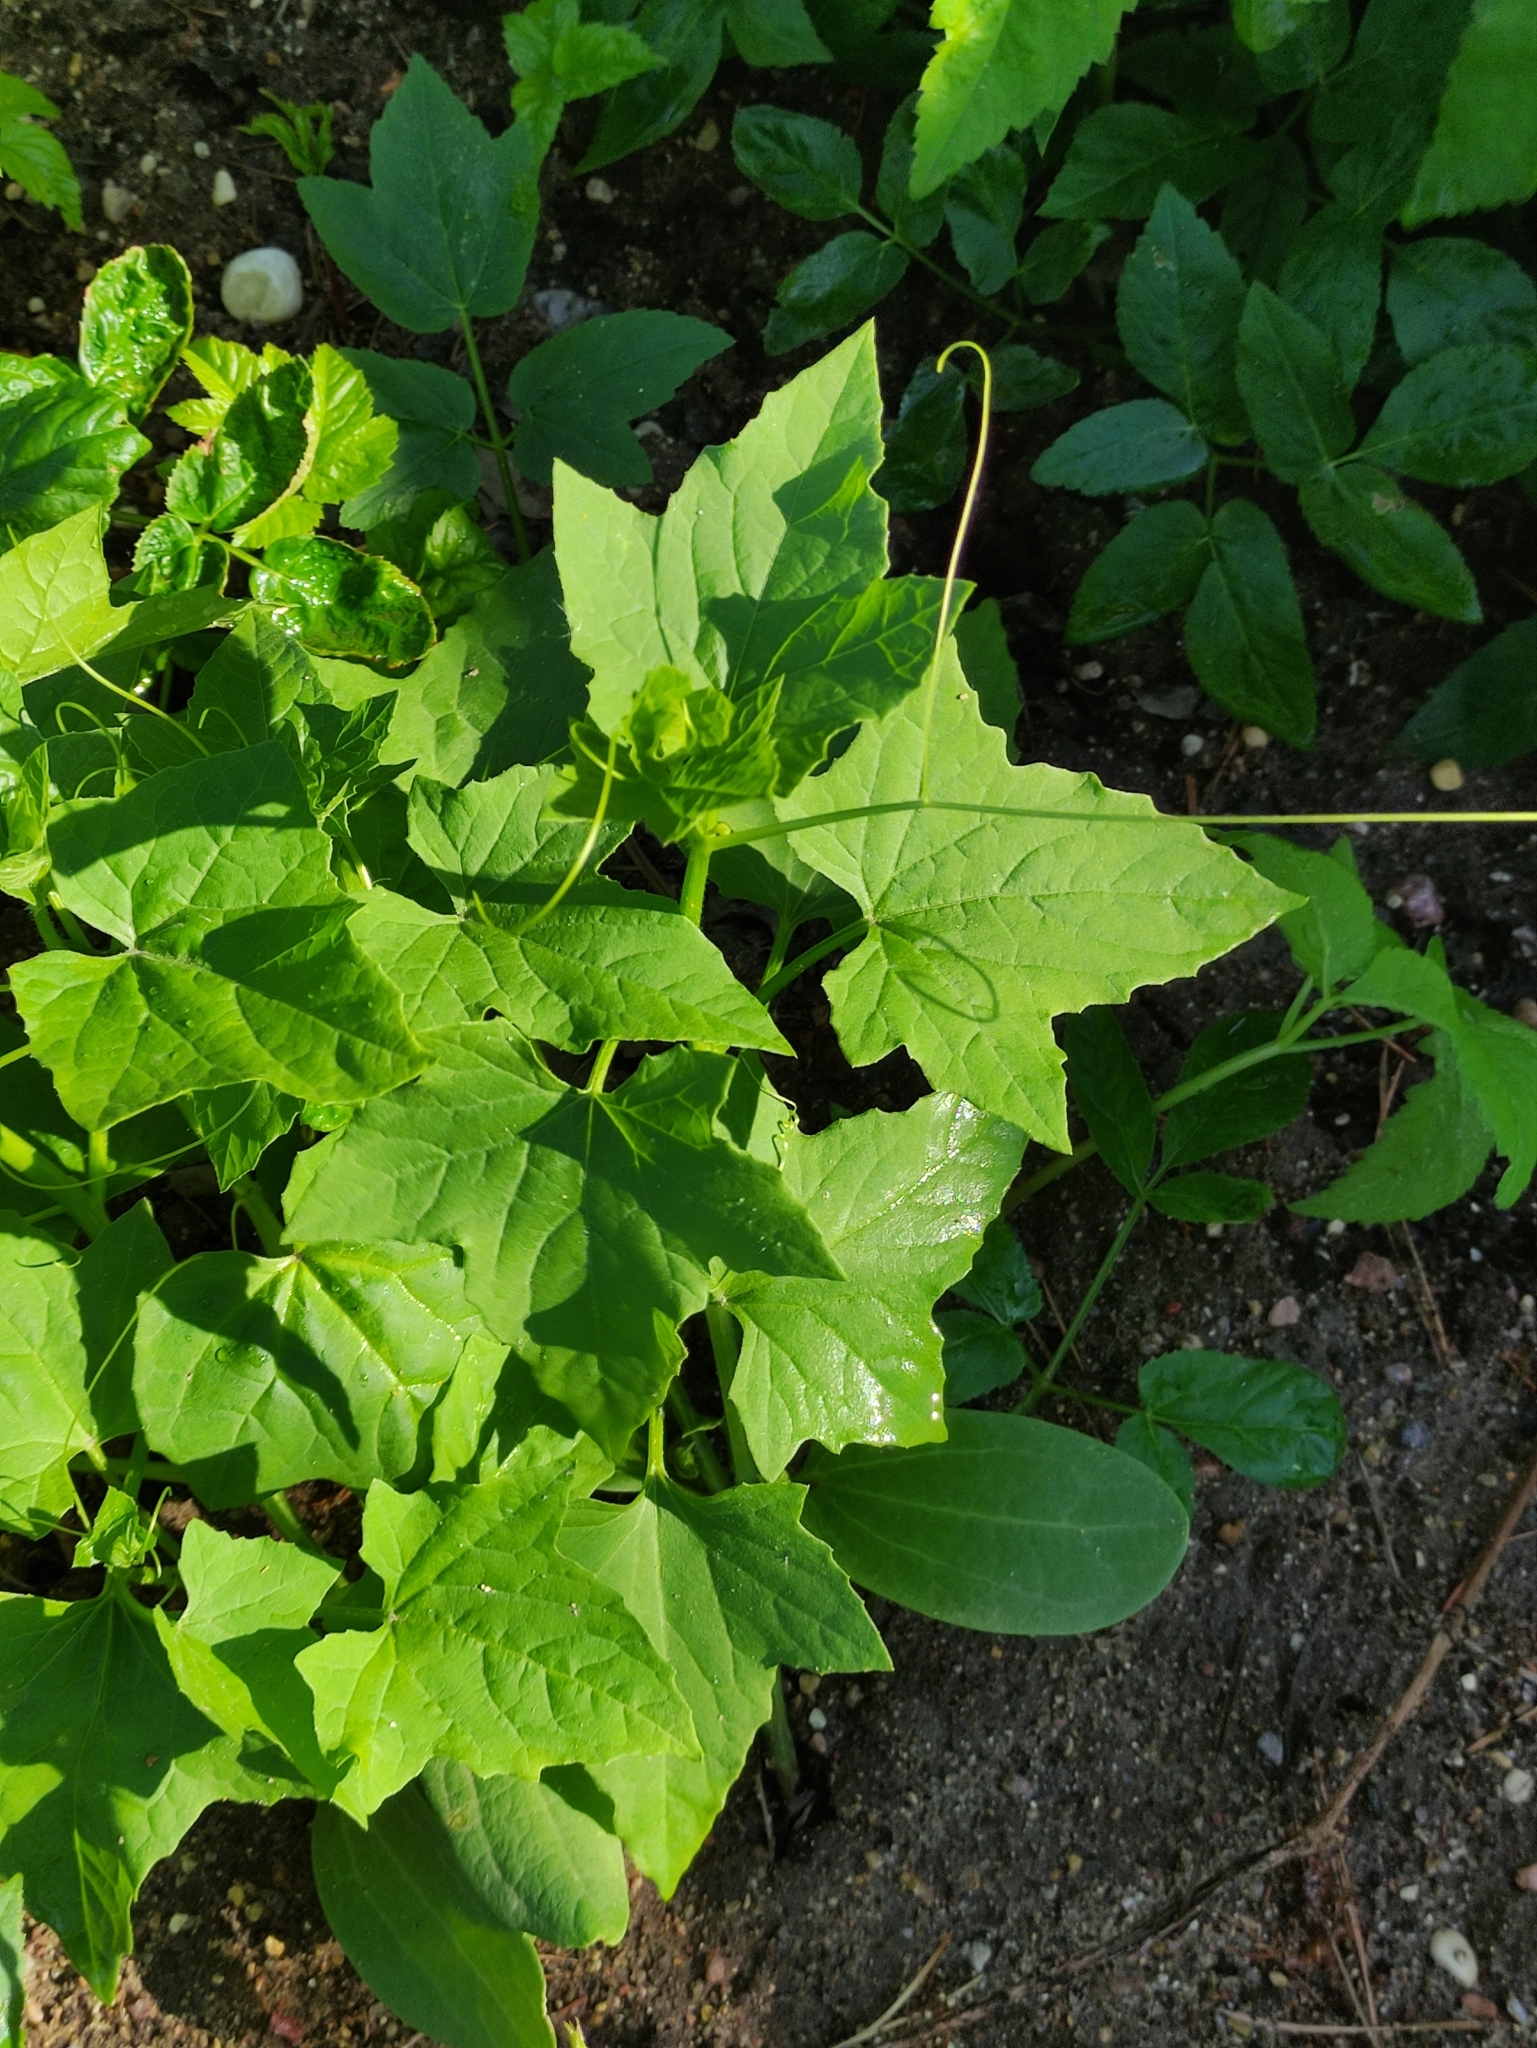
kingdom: Plantae
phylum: Tracheophyta
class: Magnoliopsida
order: Cucurbitales
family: Cucurbitaceae
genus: Echinocystis
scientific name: Echinocystis lobata
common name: Wild cucumber
